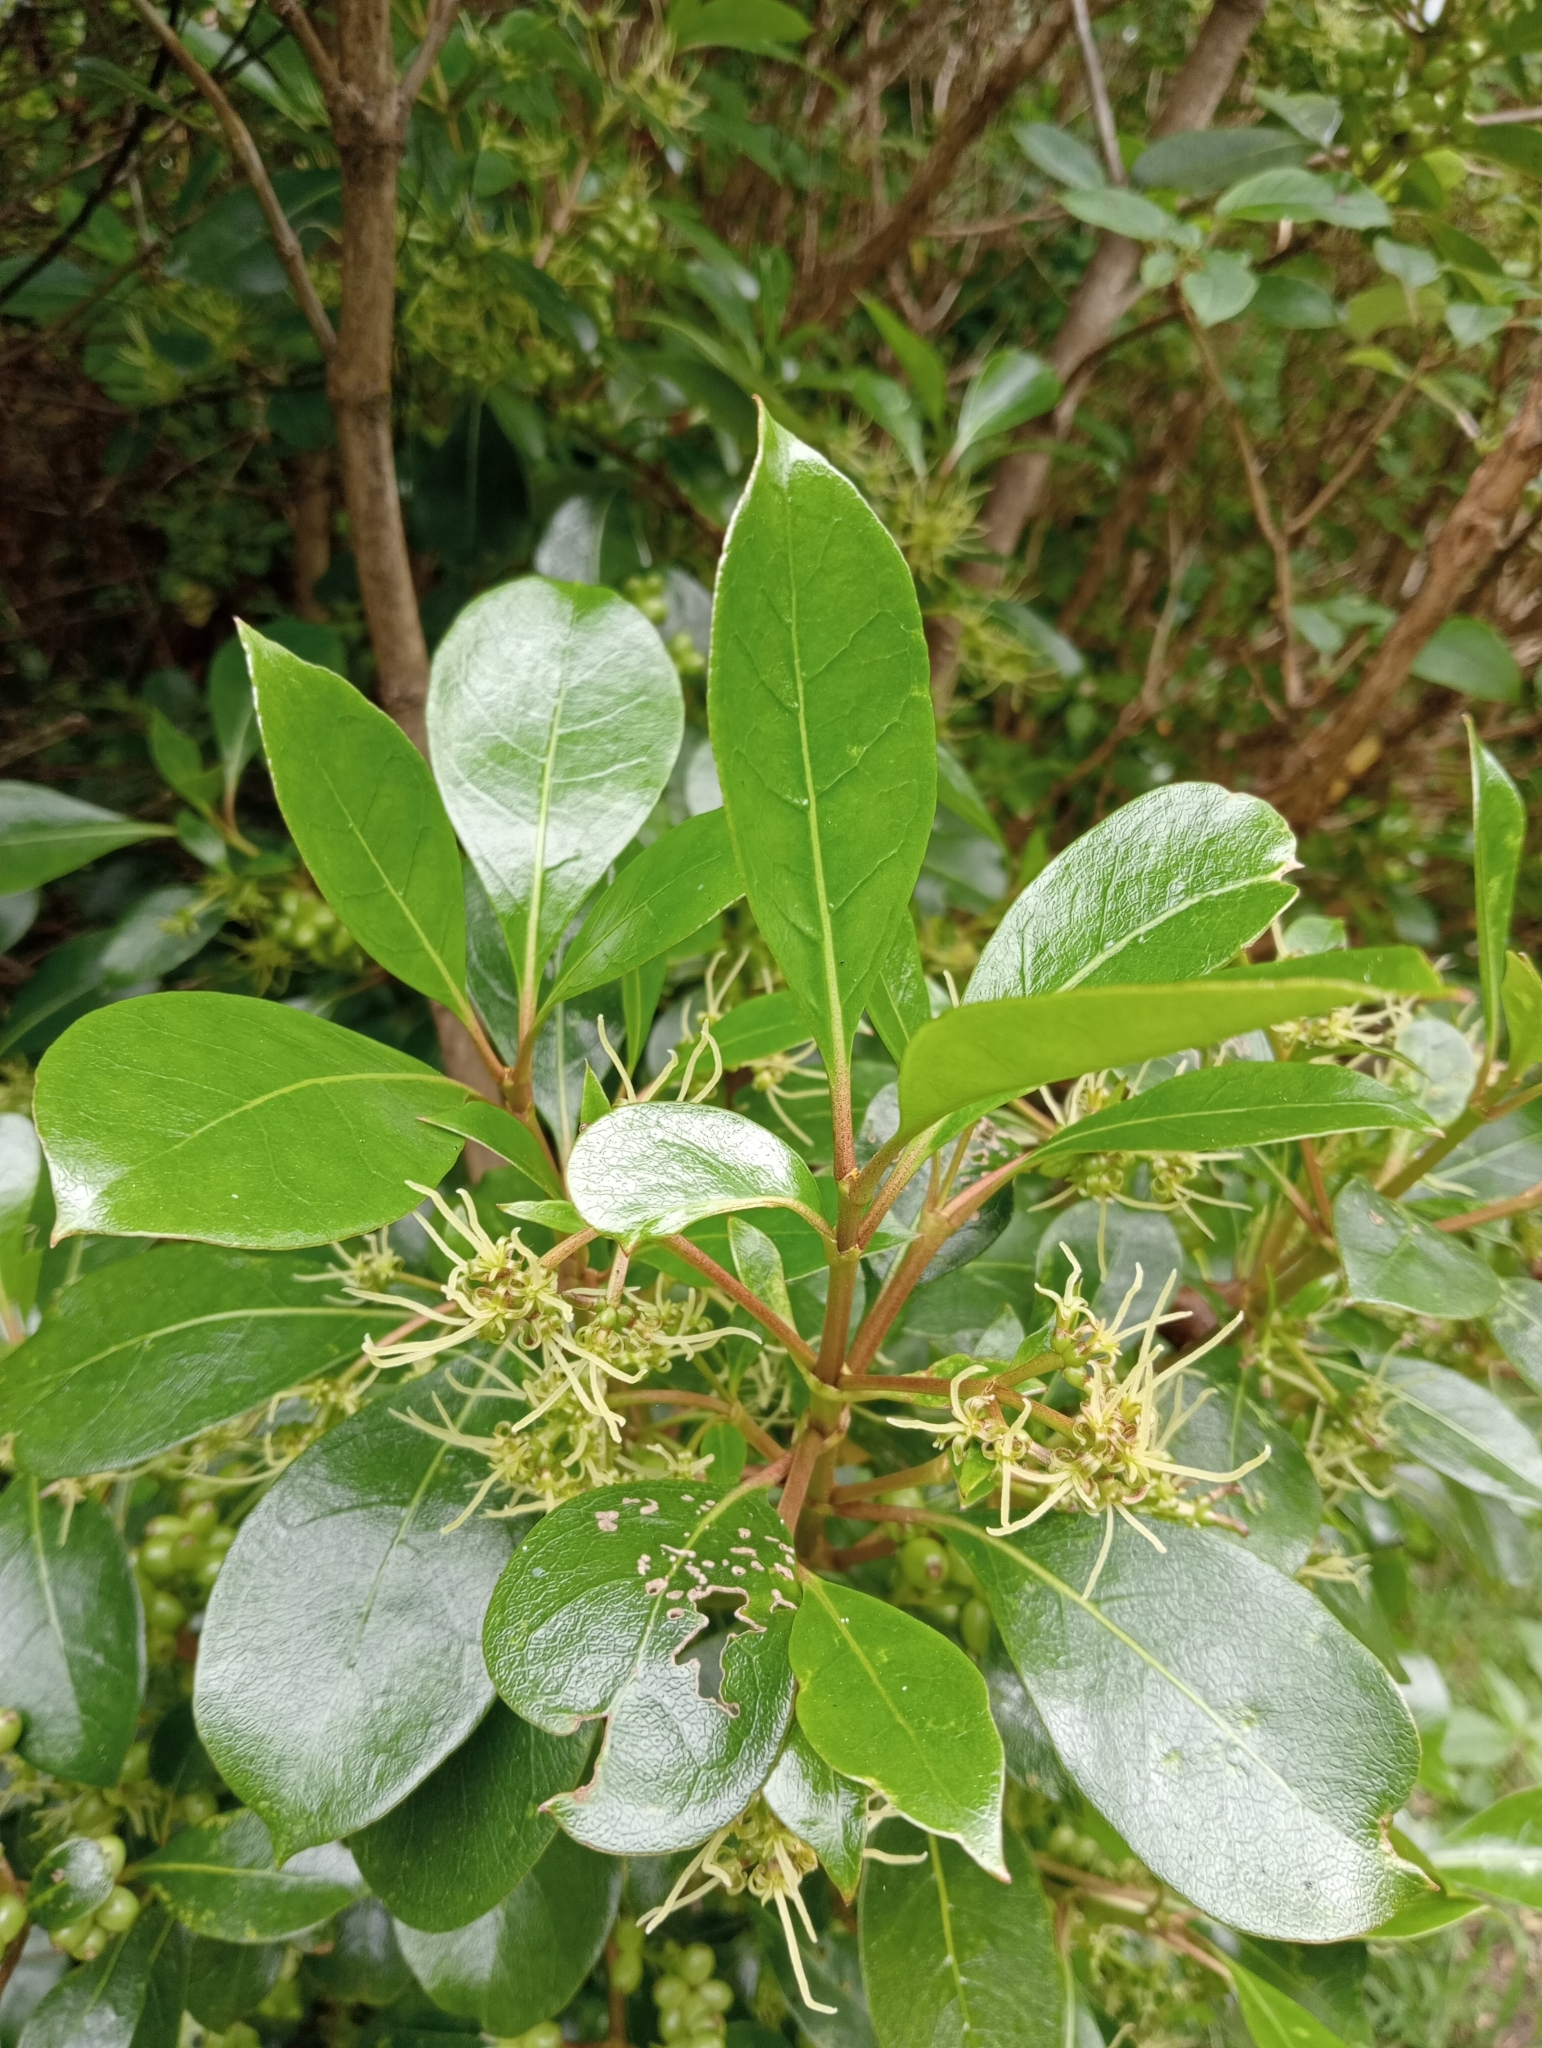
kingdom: Plantae
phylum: Tracheophyta
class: Magnoliopsida
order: Gentianales
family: Rubiaceae
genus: Coprosma
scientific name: Coprosma lucida
